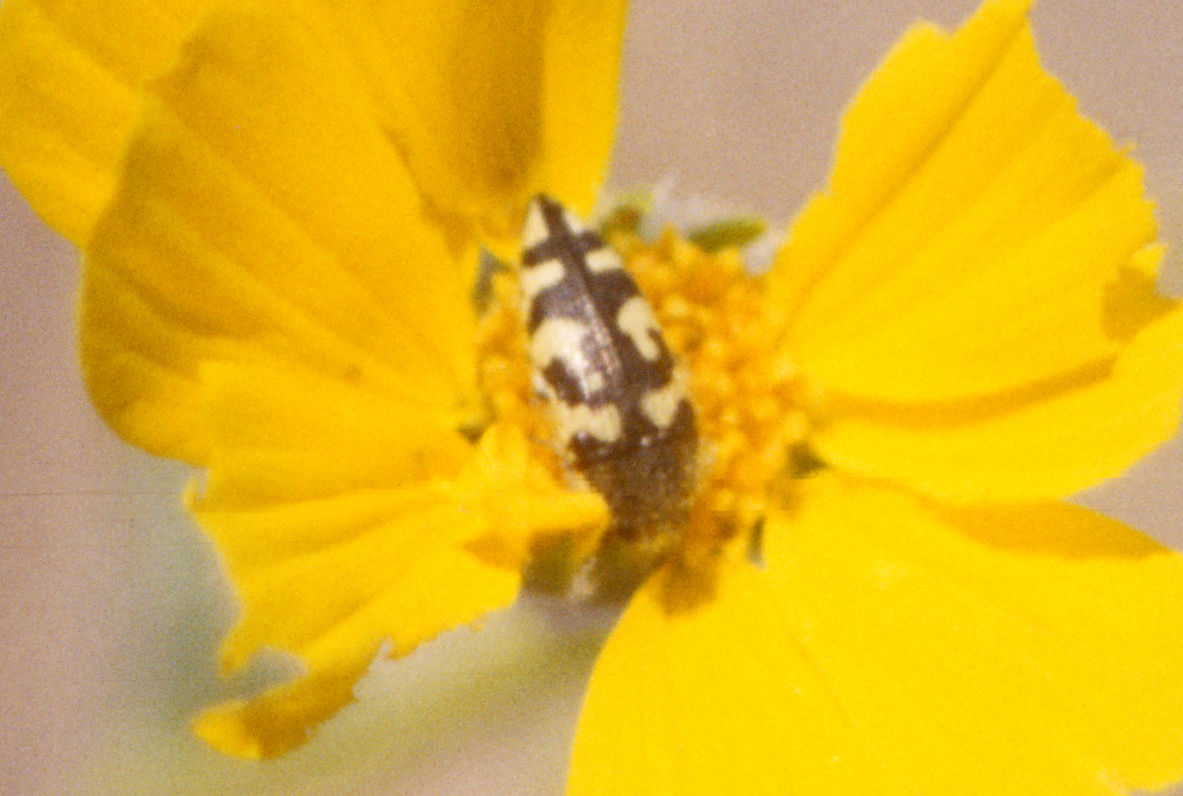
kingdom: Animalia
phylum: Arthropoda
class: Insecta
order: Coleoptera
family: Buprestidae
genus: Acmaeodera
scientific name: Acmaeodera tuta
